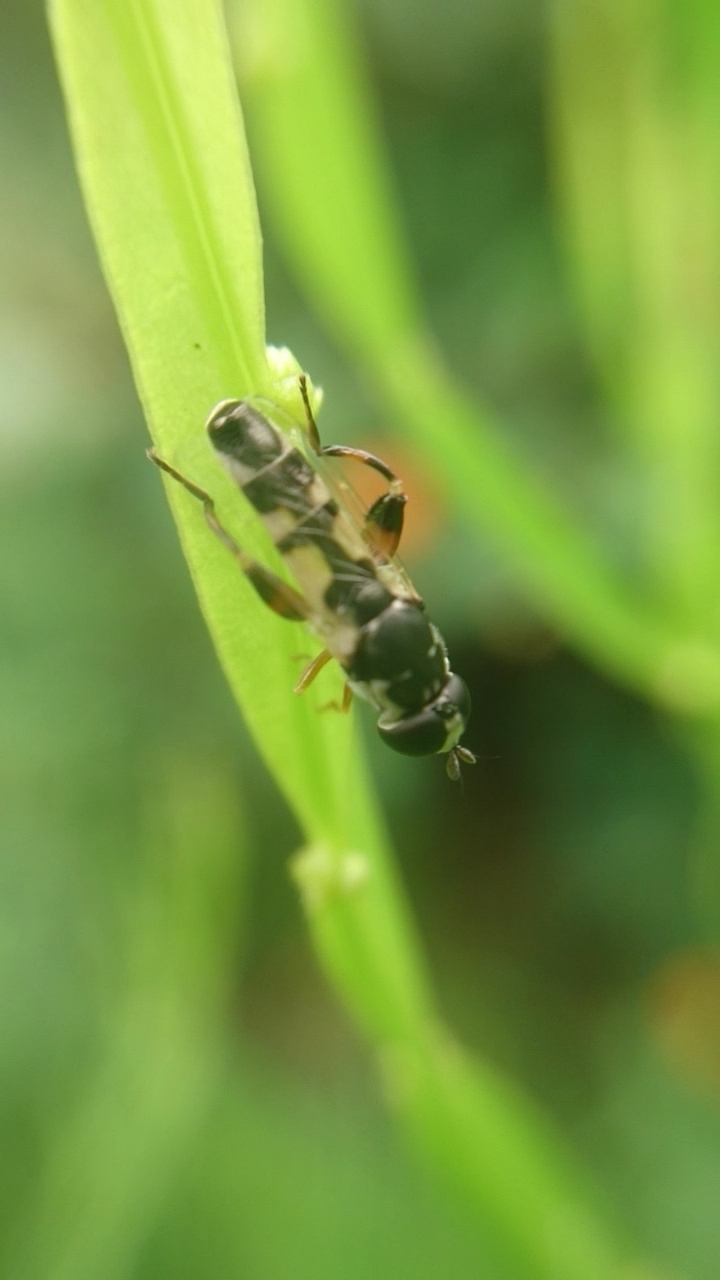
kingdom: Animalia
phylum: Arthropoda
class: Insecta
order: Diptera
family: Syrphidae
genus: Syritta
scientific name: Syritta flaviventris
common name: Syrphid fly
